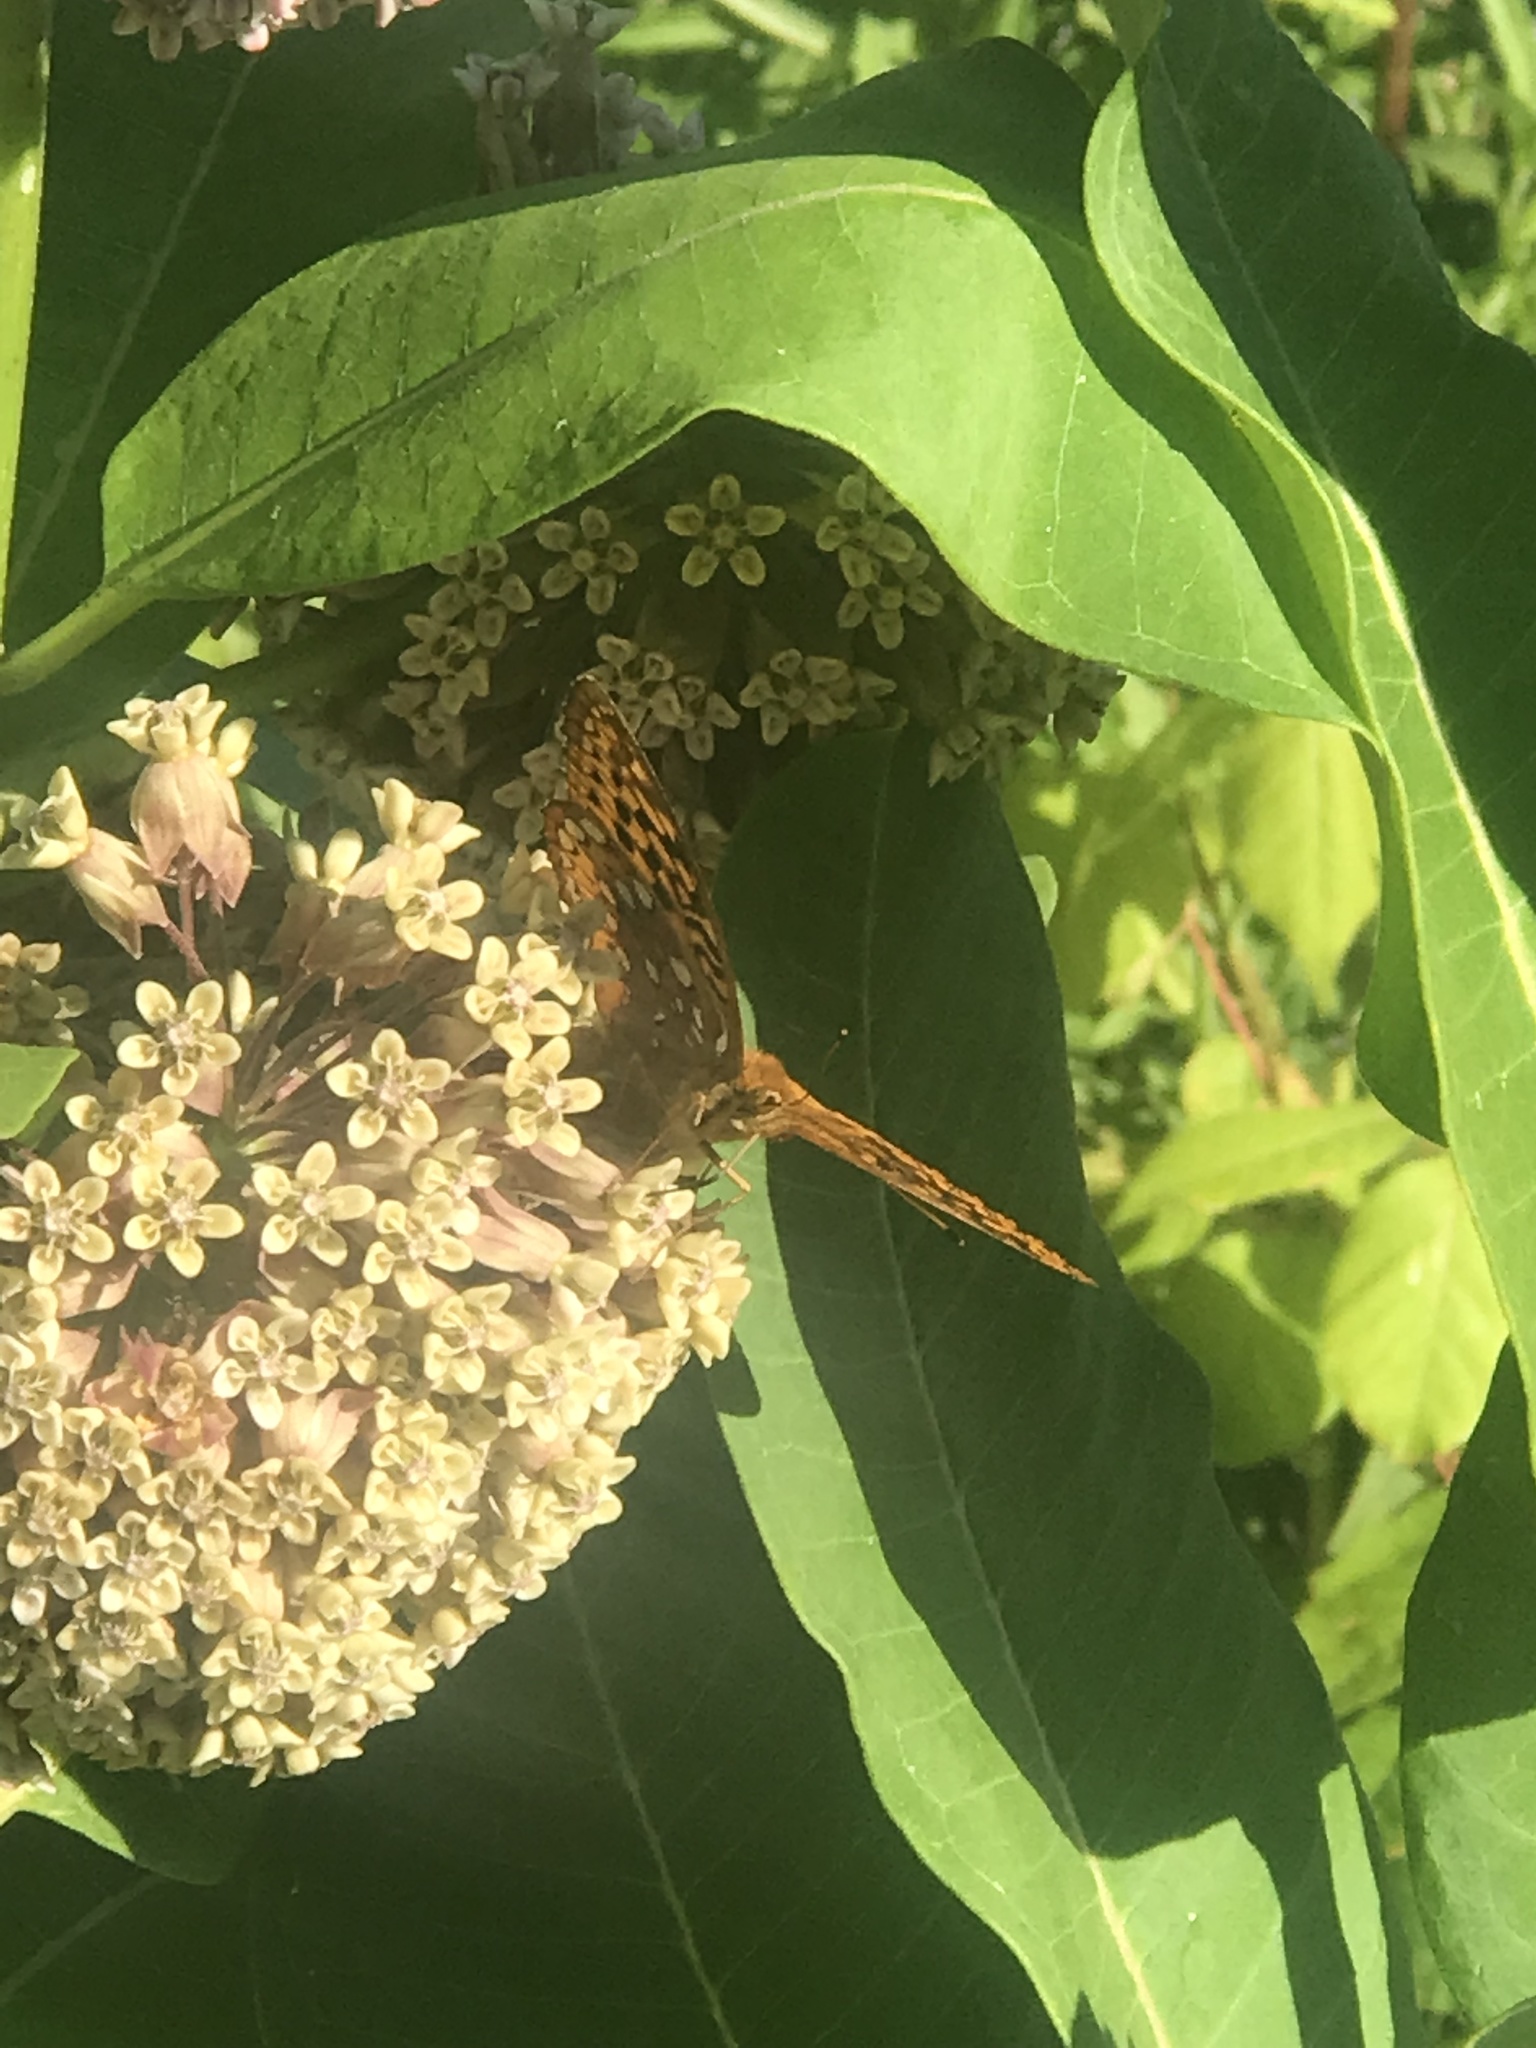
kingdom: Animalia
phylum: Arthropoda
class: Insecta
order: Lepidoptera
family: Nymphalidae
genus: Speyeria
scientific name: Speyeria cybele
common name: Great spangled fritillary
